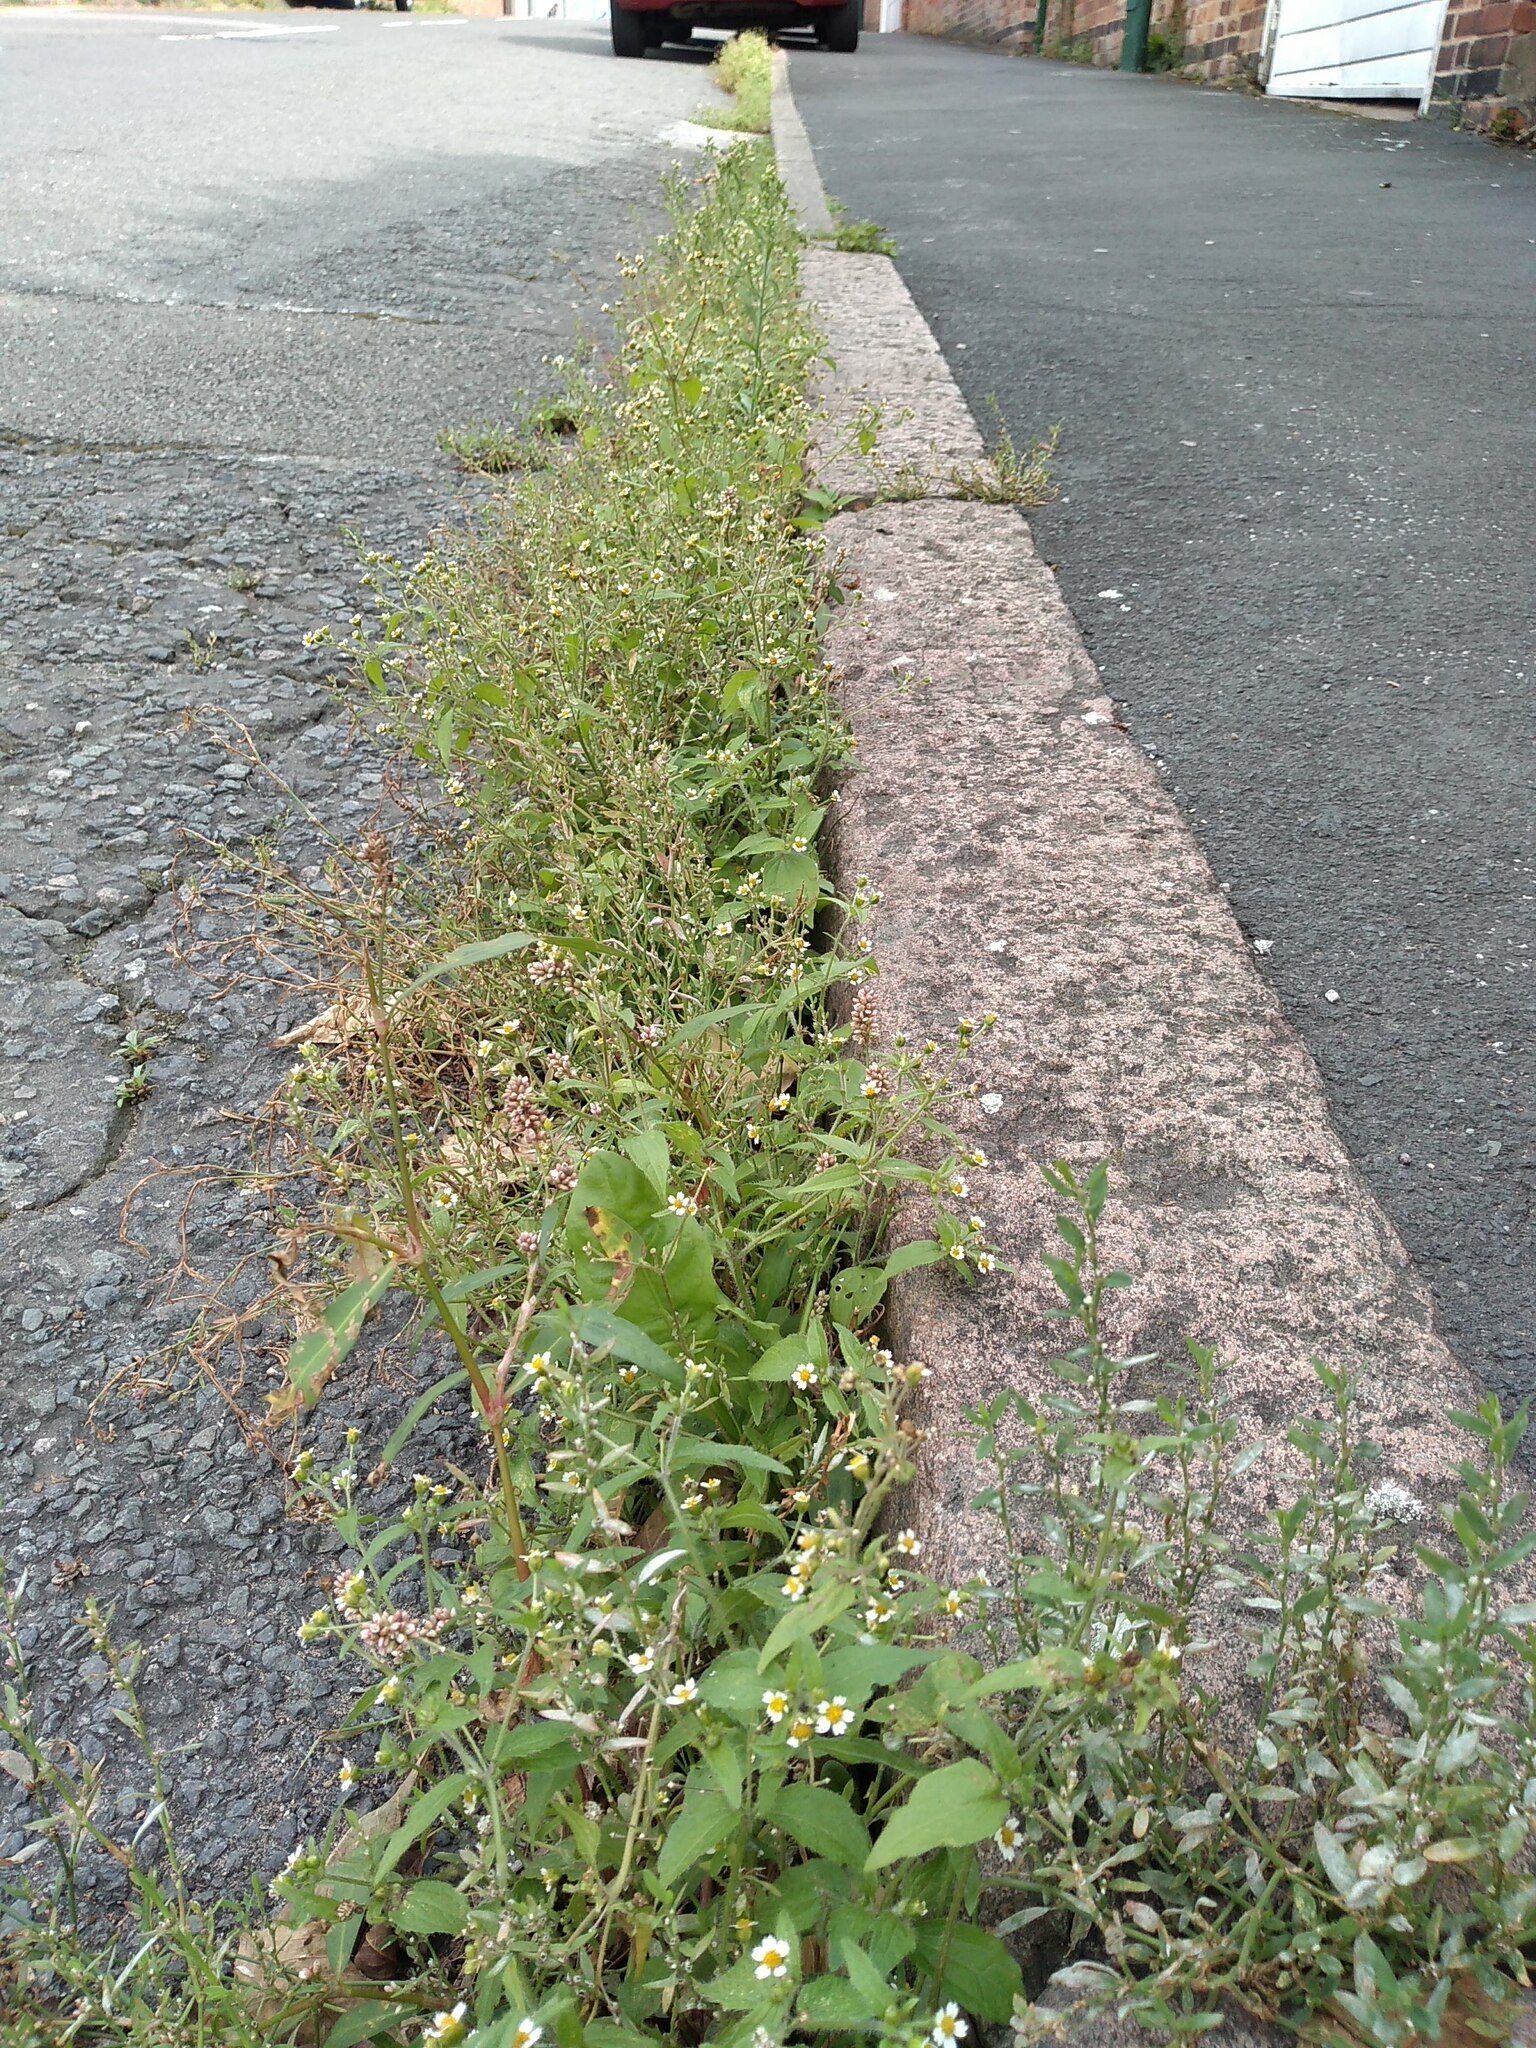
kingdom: Plantae
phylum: Tracheophyta
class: Magnoliopsida
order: Asterales
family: Asteraceae
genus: Galinsoga
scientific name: Galinsoga quadriradiata
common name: Shaggy soldier
